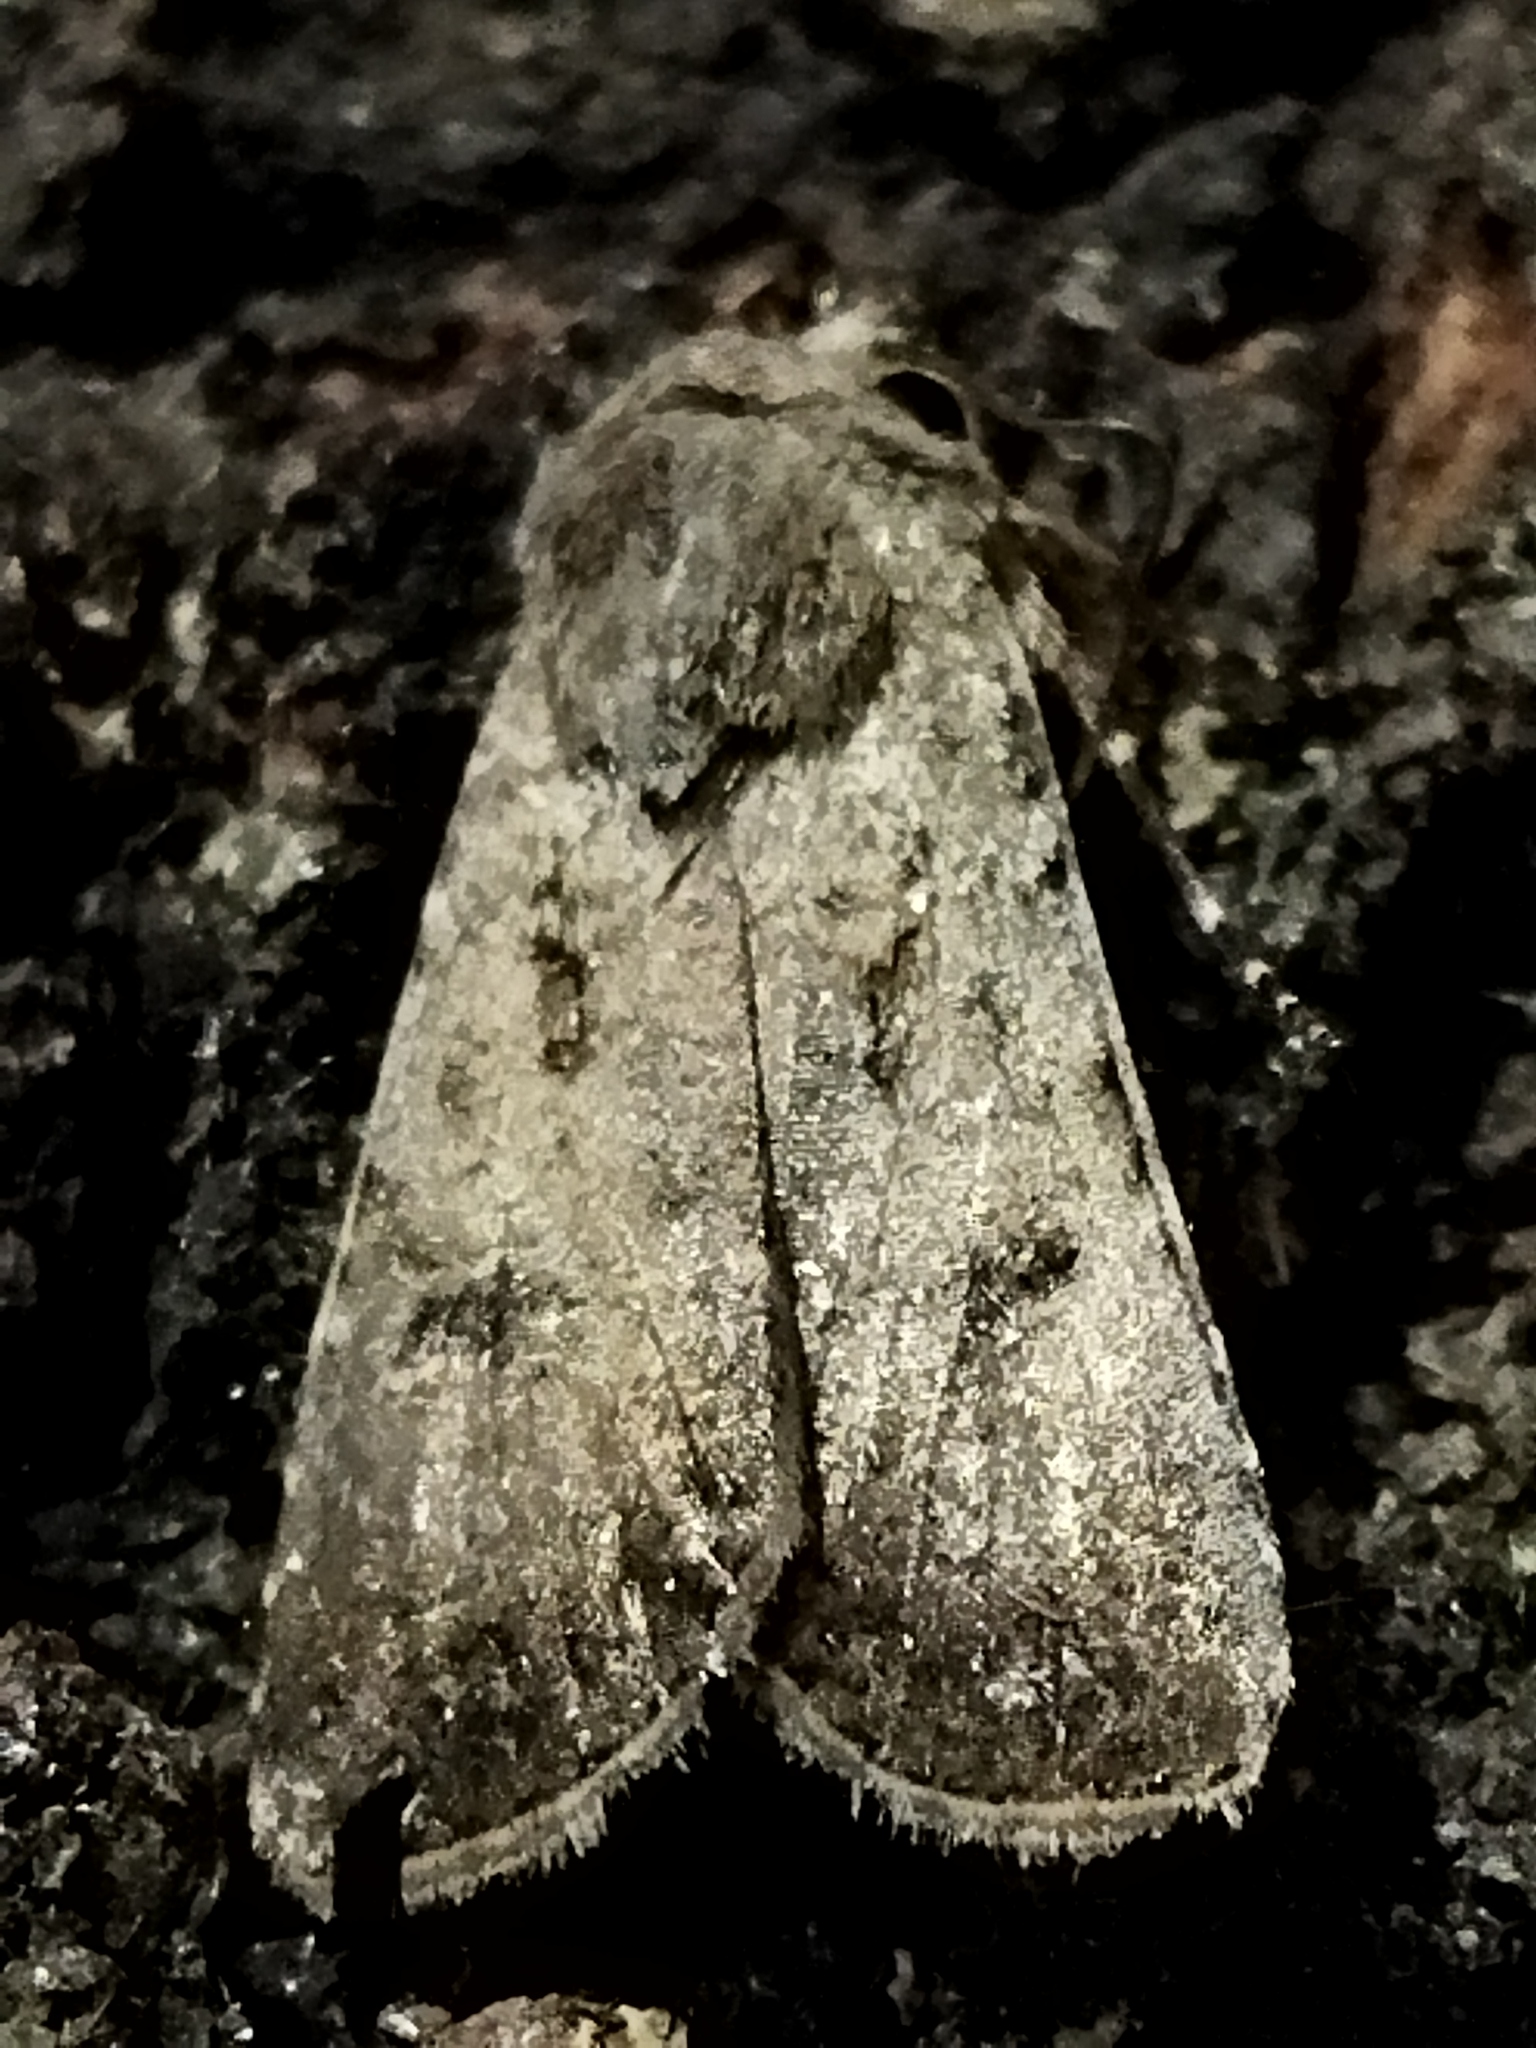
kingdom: Animalia
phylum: Arthropoda
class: Insecta
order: Lepidoptera
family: Noctuidae
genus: Agrotis
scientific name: Agrotis exclamationis
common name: Heart and dart
